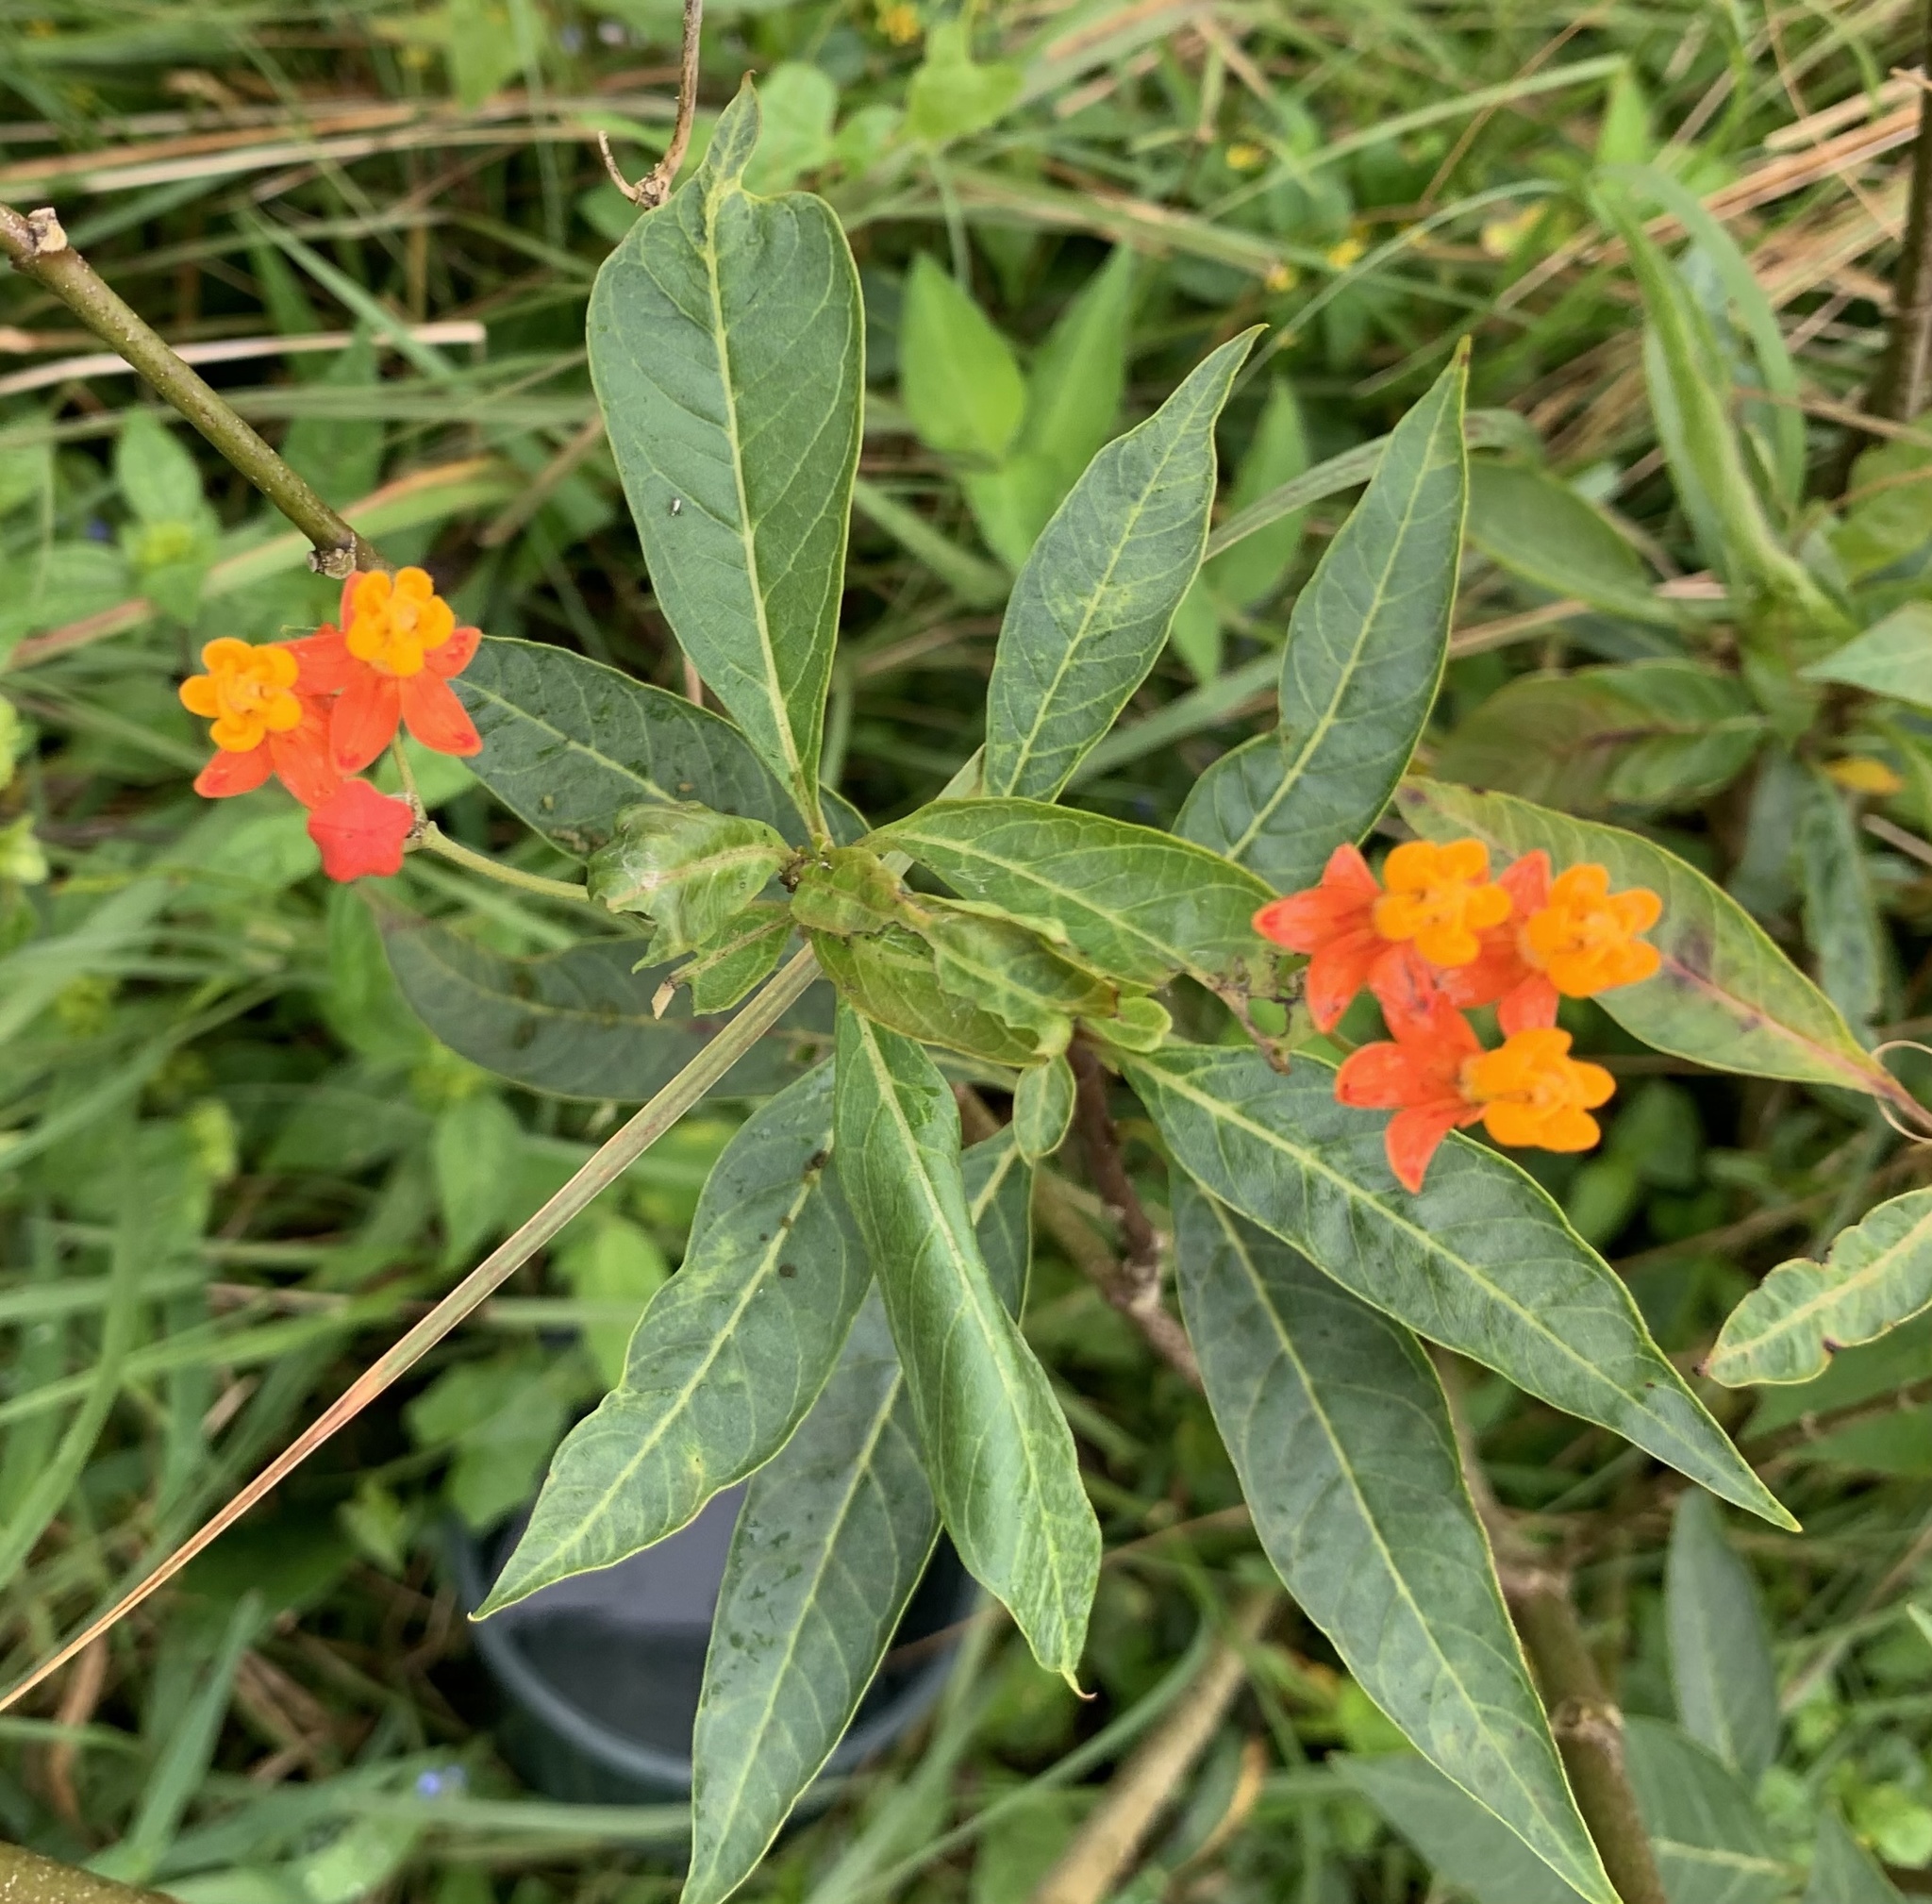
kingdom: Plantae
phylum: Tracheophyta
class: Magnoliopsida
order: Gentianales
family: Apocynaceae
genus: Asclepias
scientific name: Asclepias curassavica
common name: Bloodflower
